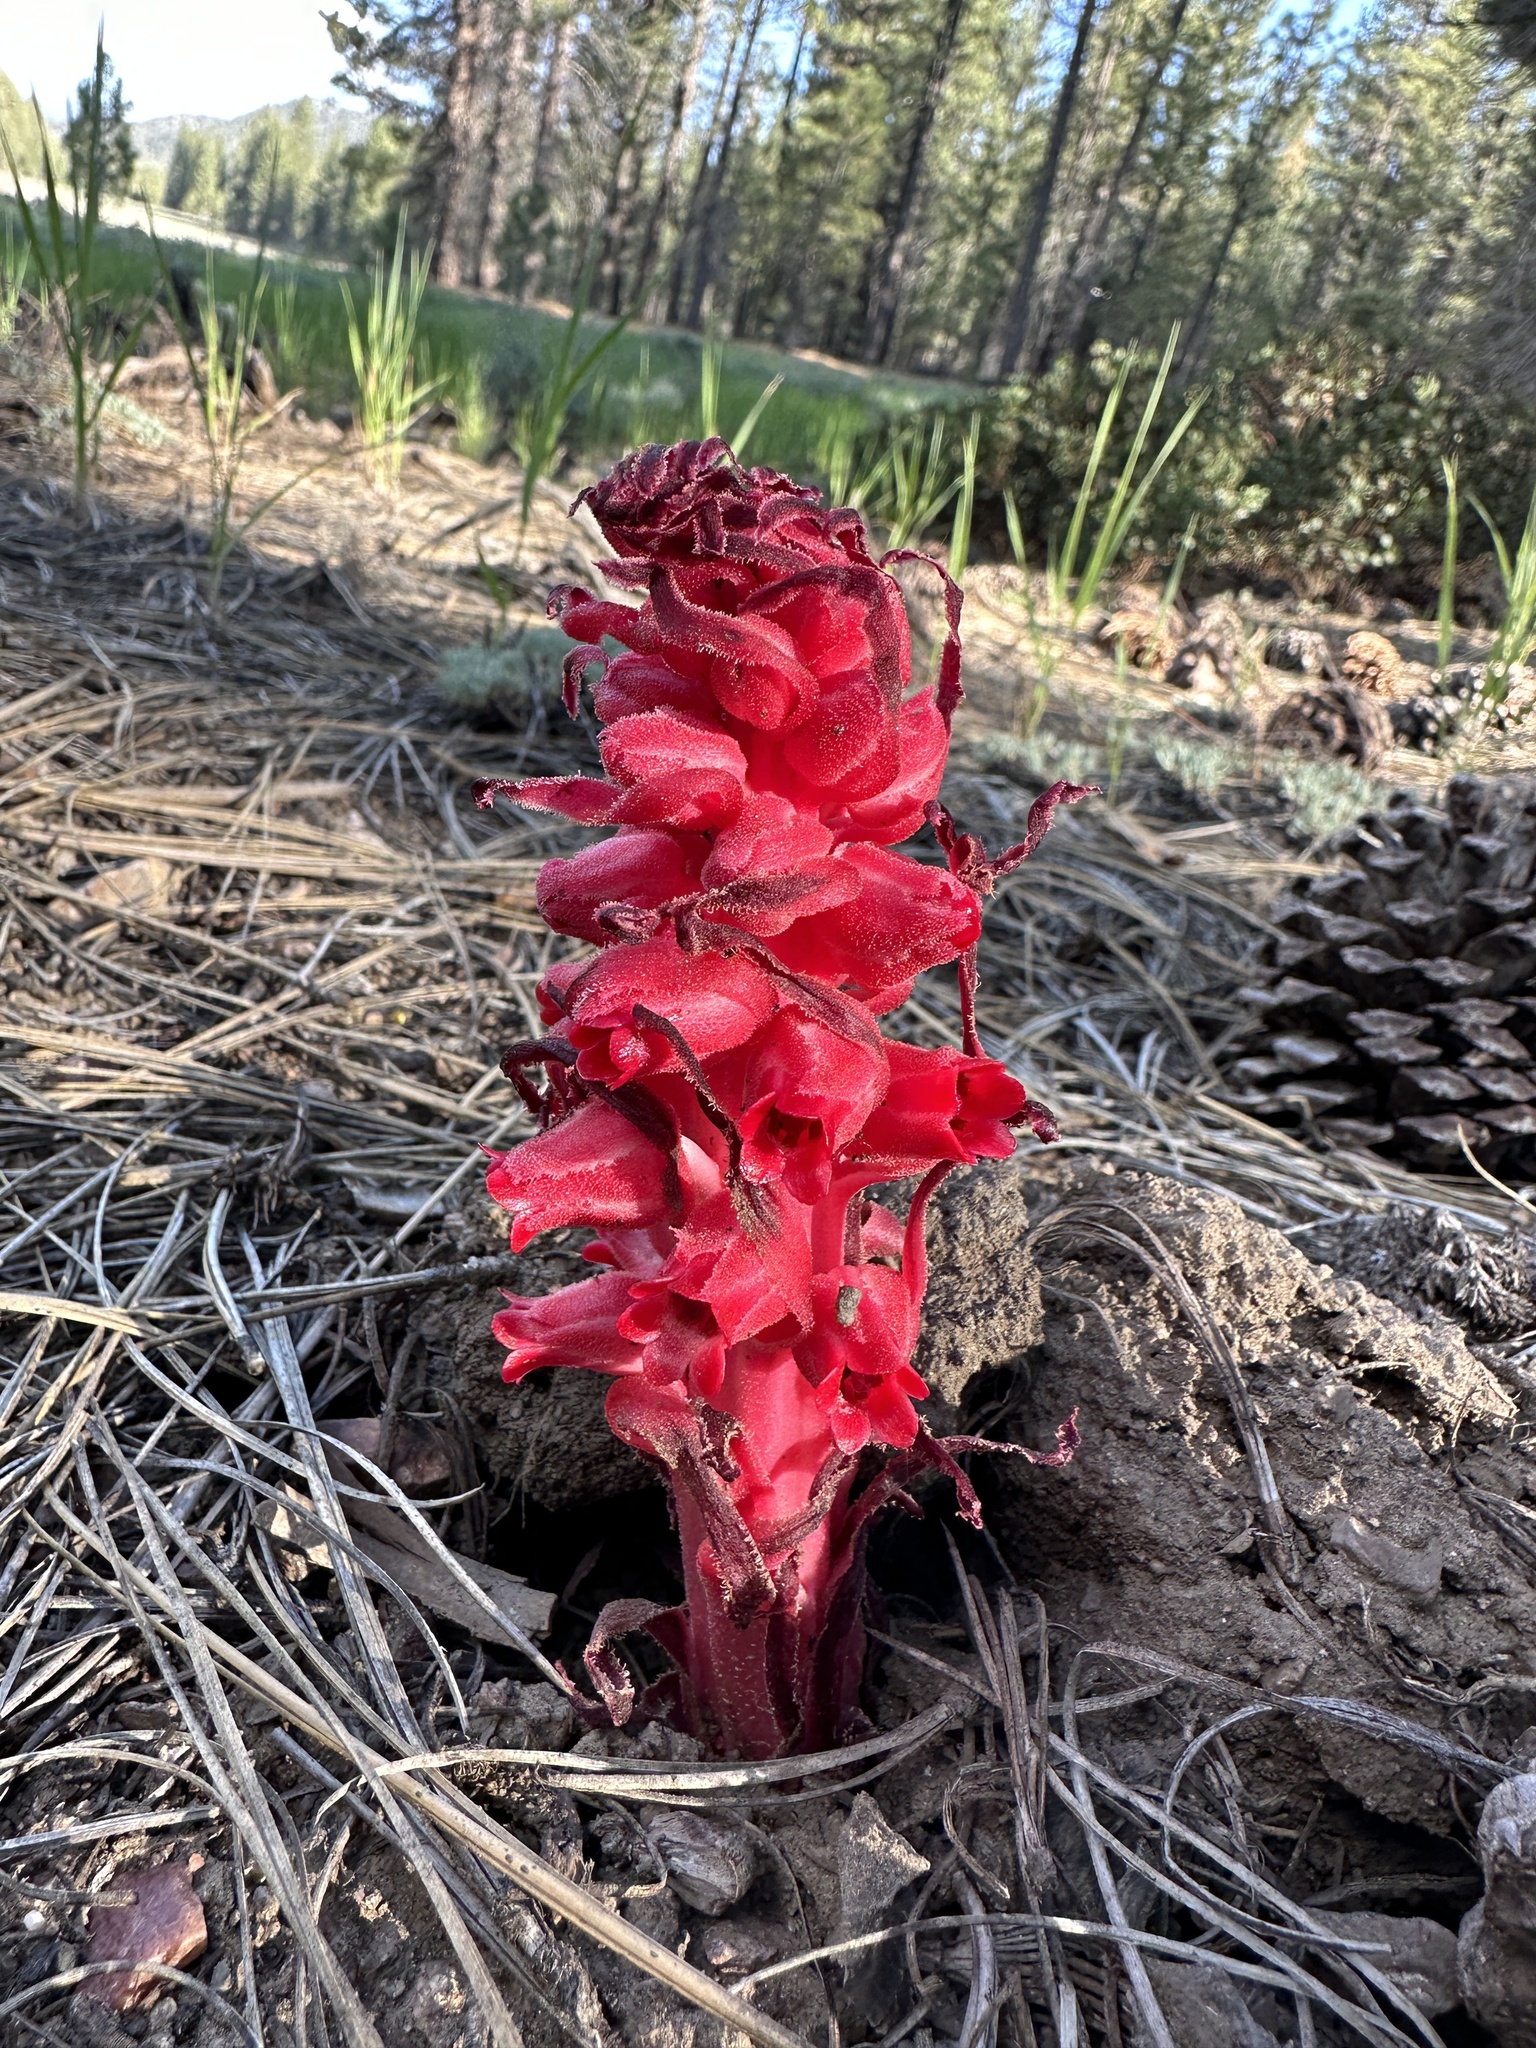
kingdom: Plantae
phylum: Tracheophyta
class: Magnoliopsida
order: Ericales
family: Ericaceae
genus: Sarcodes
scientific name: Sarcodes sanguinea
